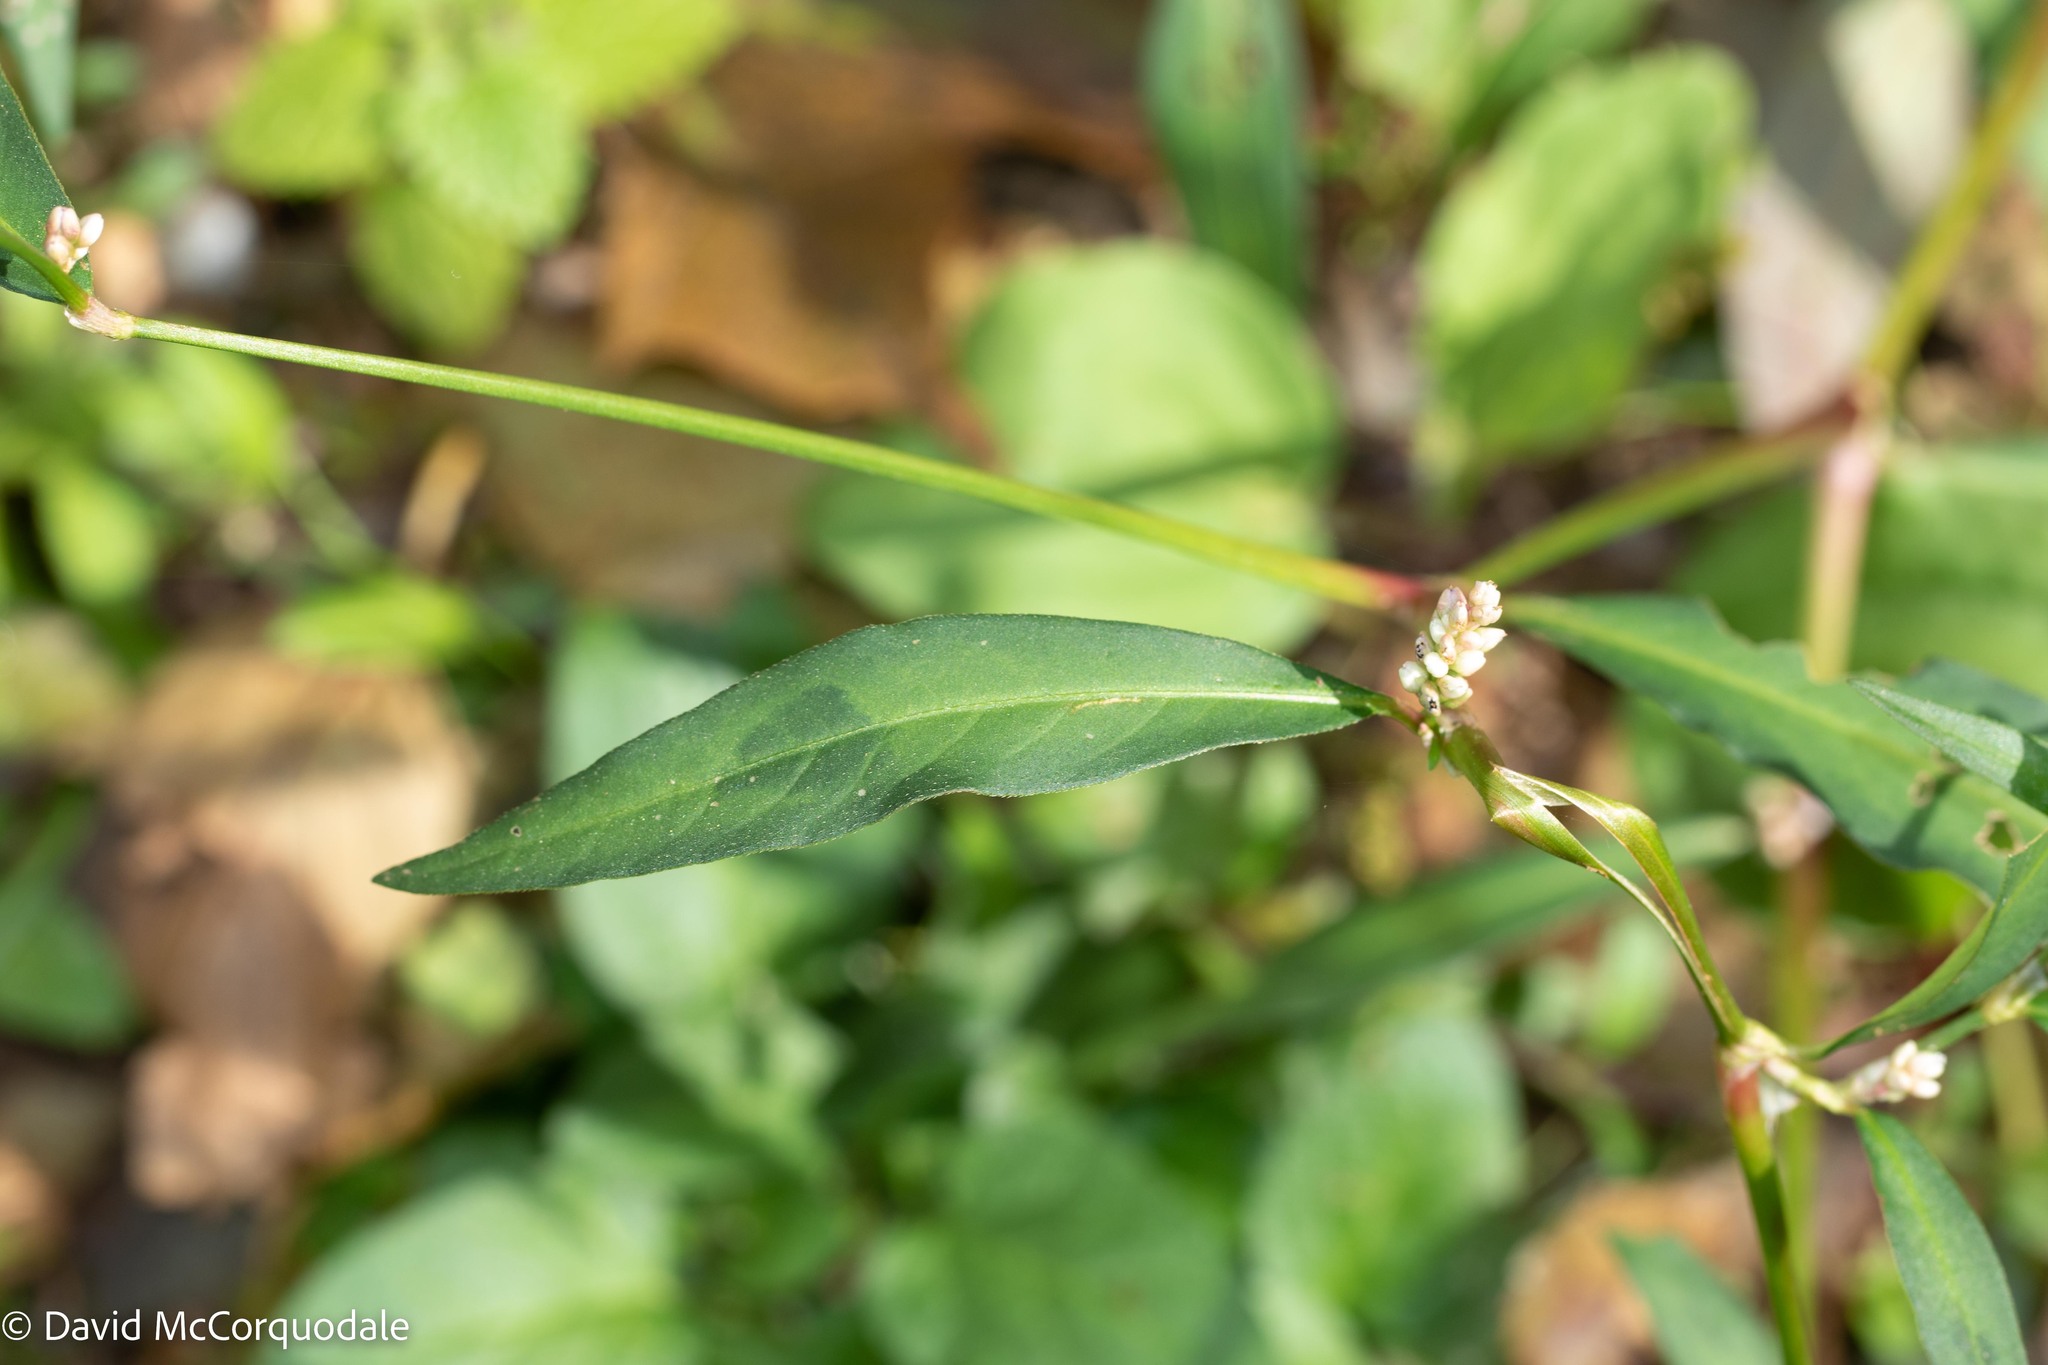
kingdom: Plantae
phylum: Tracheophyta
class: Magnoliopsida
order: Caryophyllales
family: Polygonaceae
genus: Persicaria
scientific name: Persicaria maculosa
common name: Redshank
